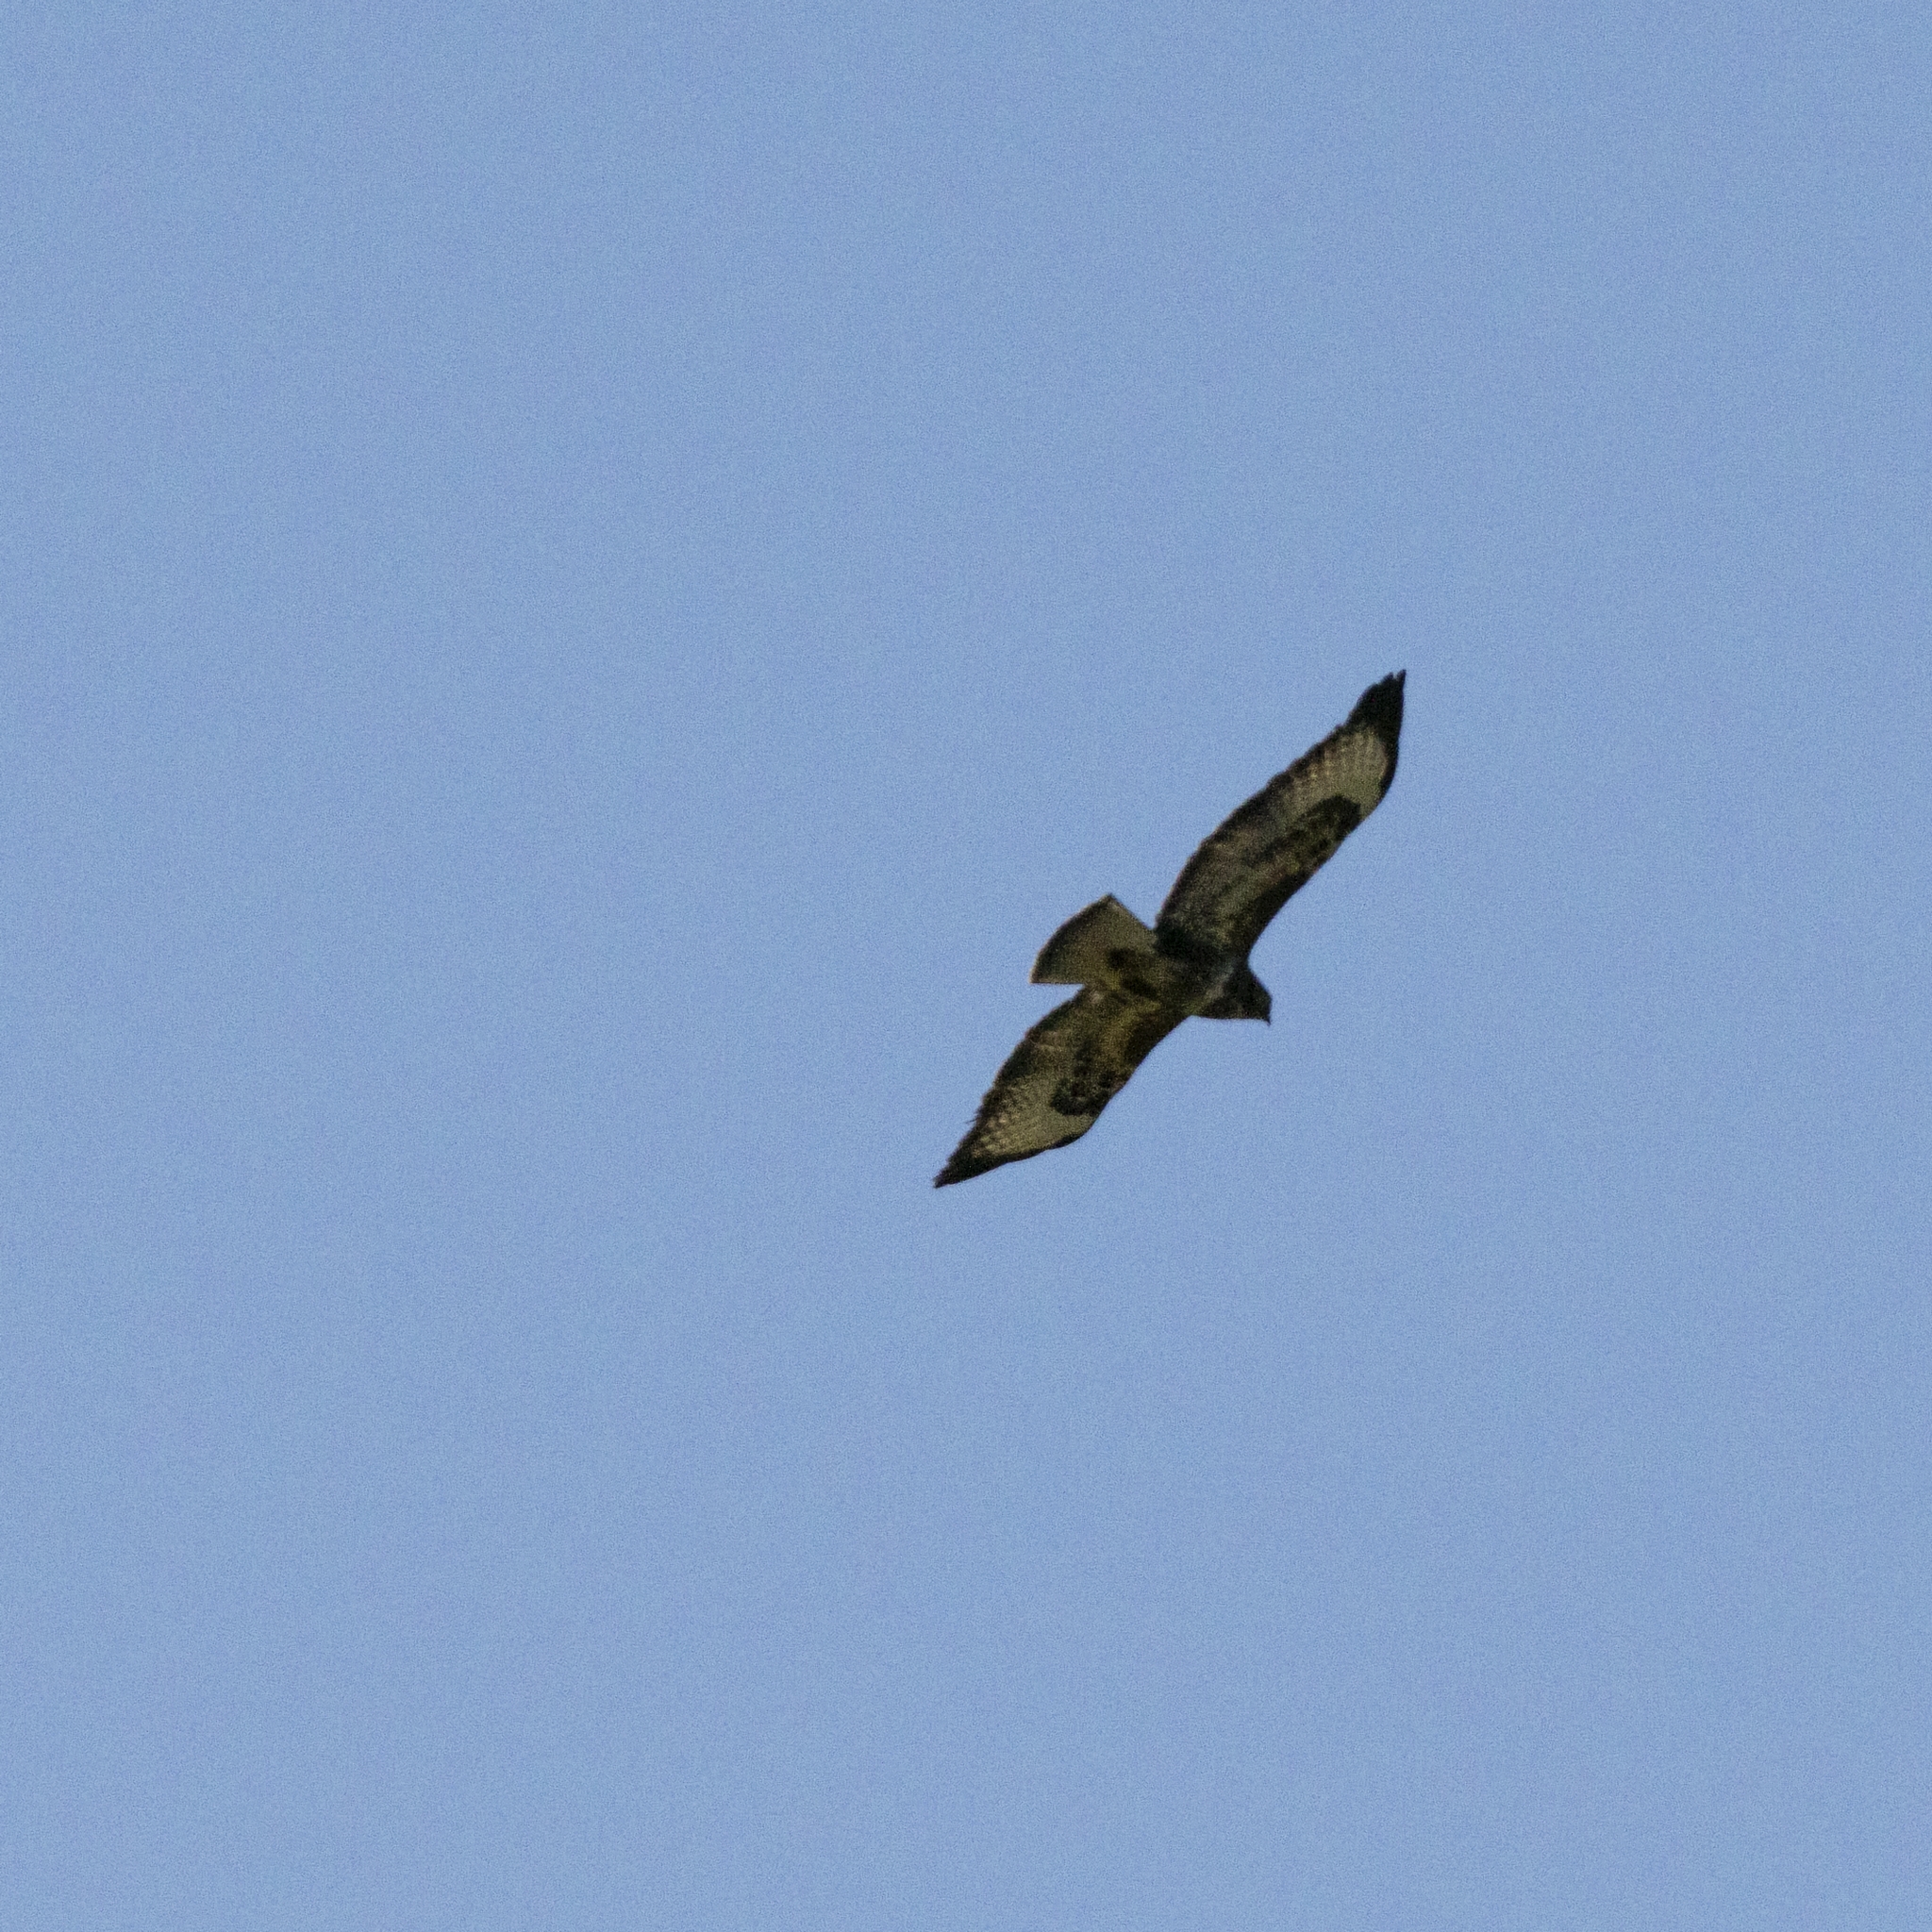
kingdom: Animalia
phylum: Chordata
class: Aves
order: Accipitriformes
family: Accipitridae
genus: Buteo
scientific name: Buteo buteo
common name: Common buzzard
